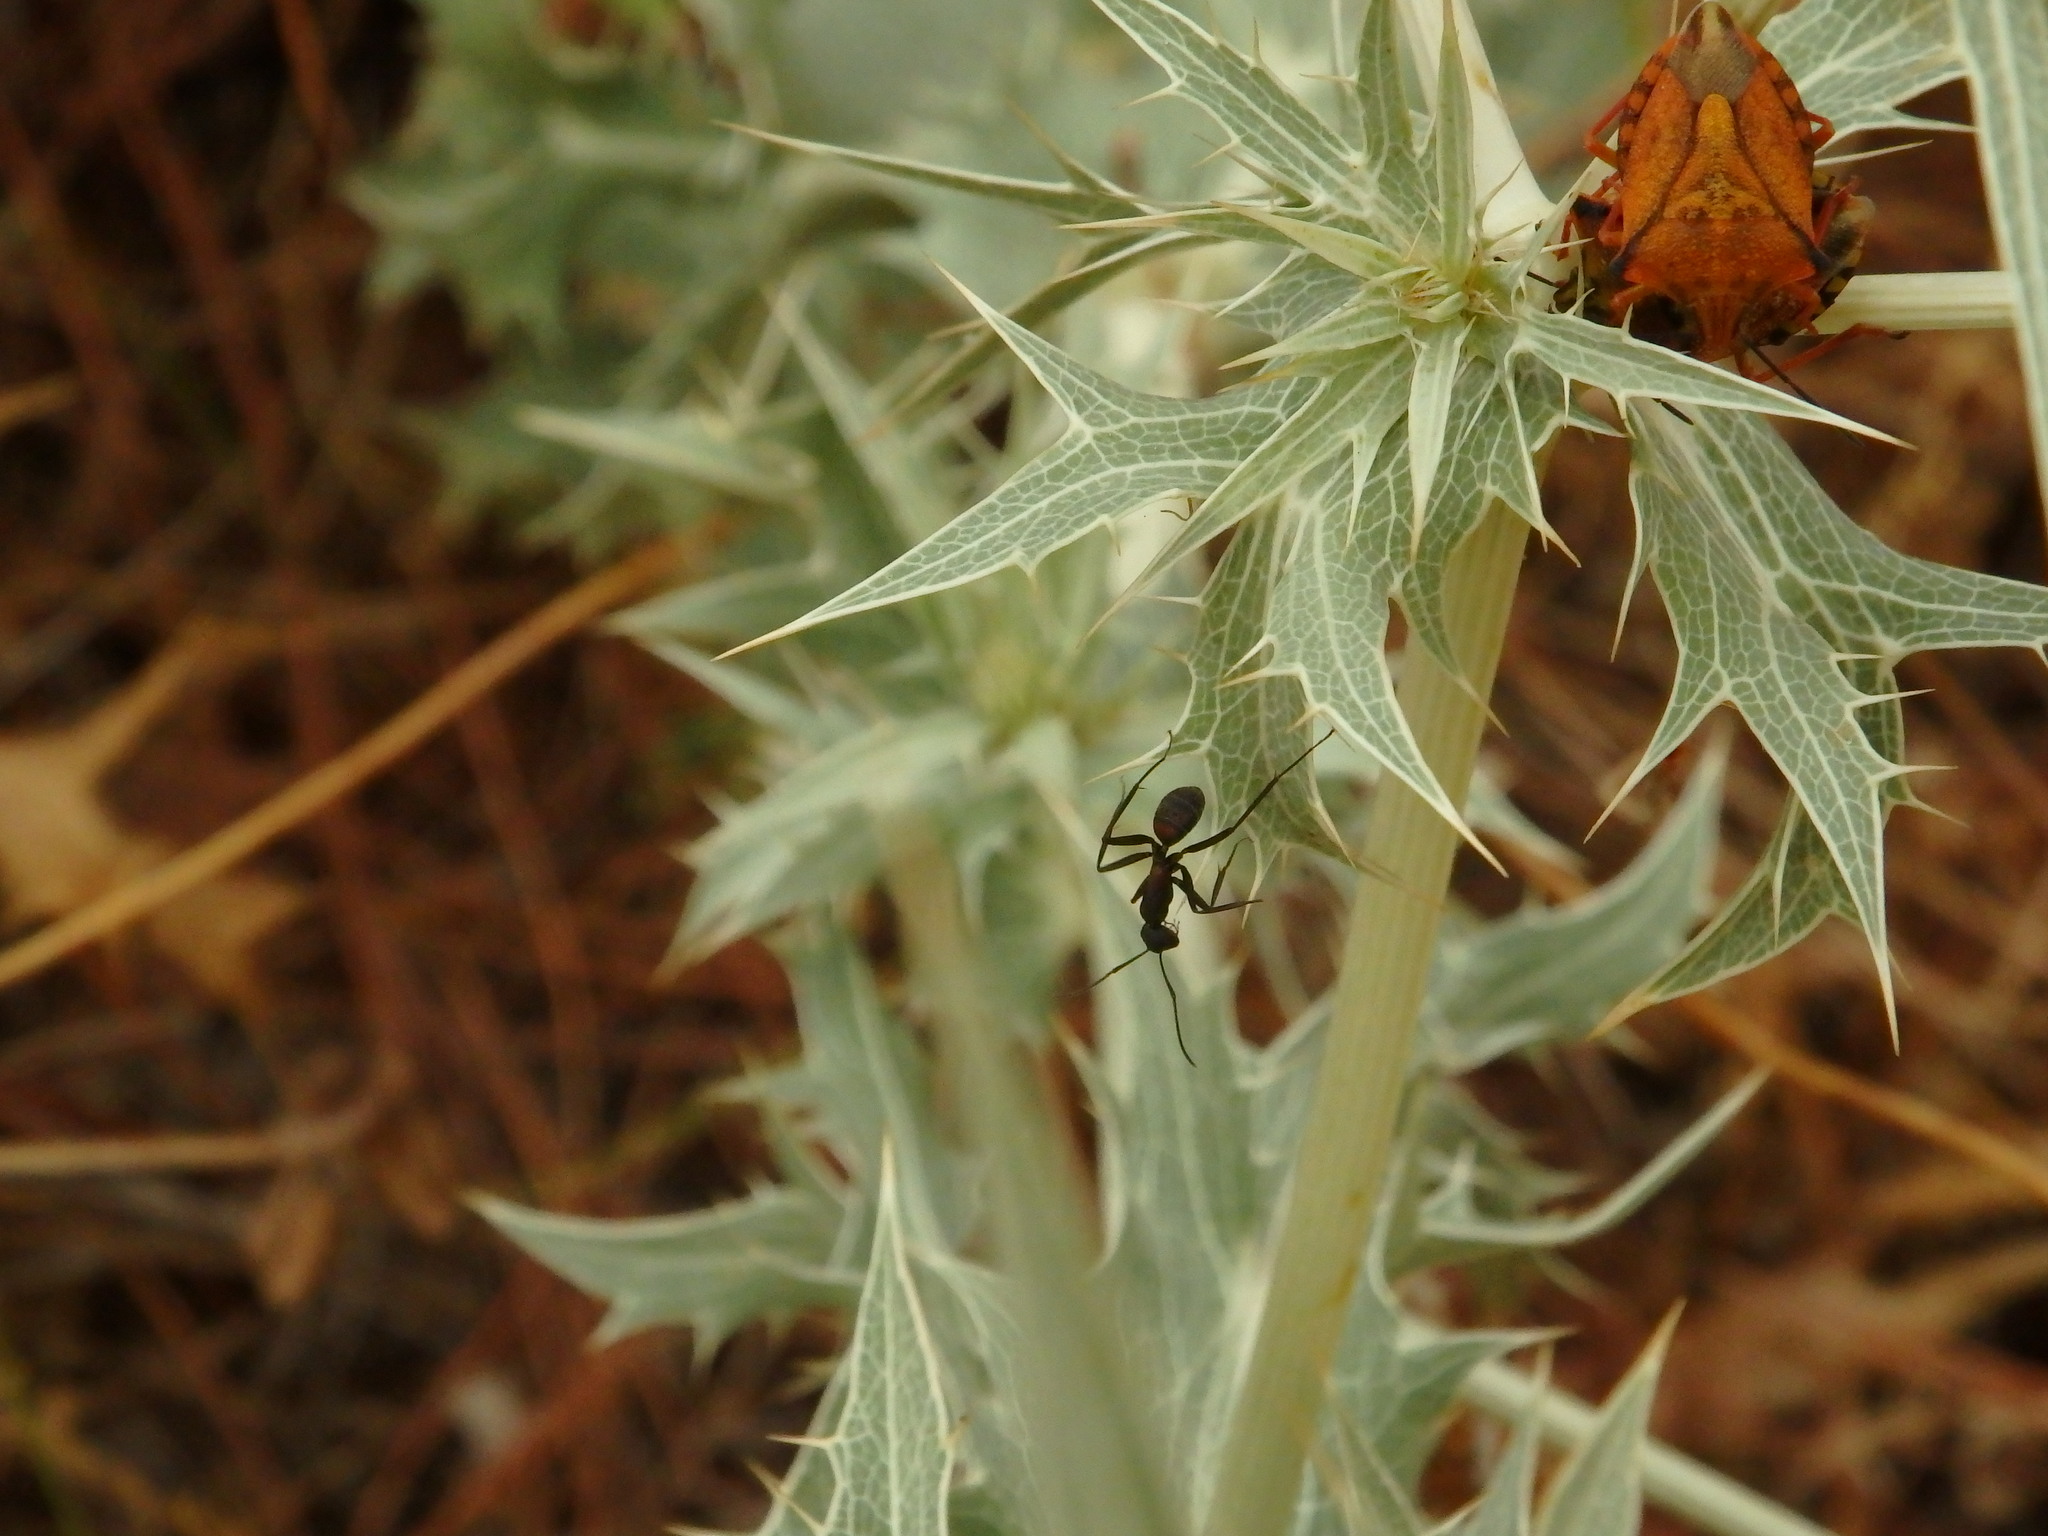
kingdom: Animalia
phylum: Arthropoda
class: Insecta
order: Hymenoptera
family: Formicidae
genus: Camponotus
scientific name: Camponotus cruentatus
